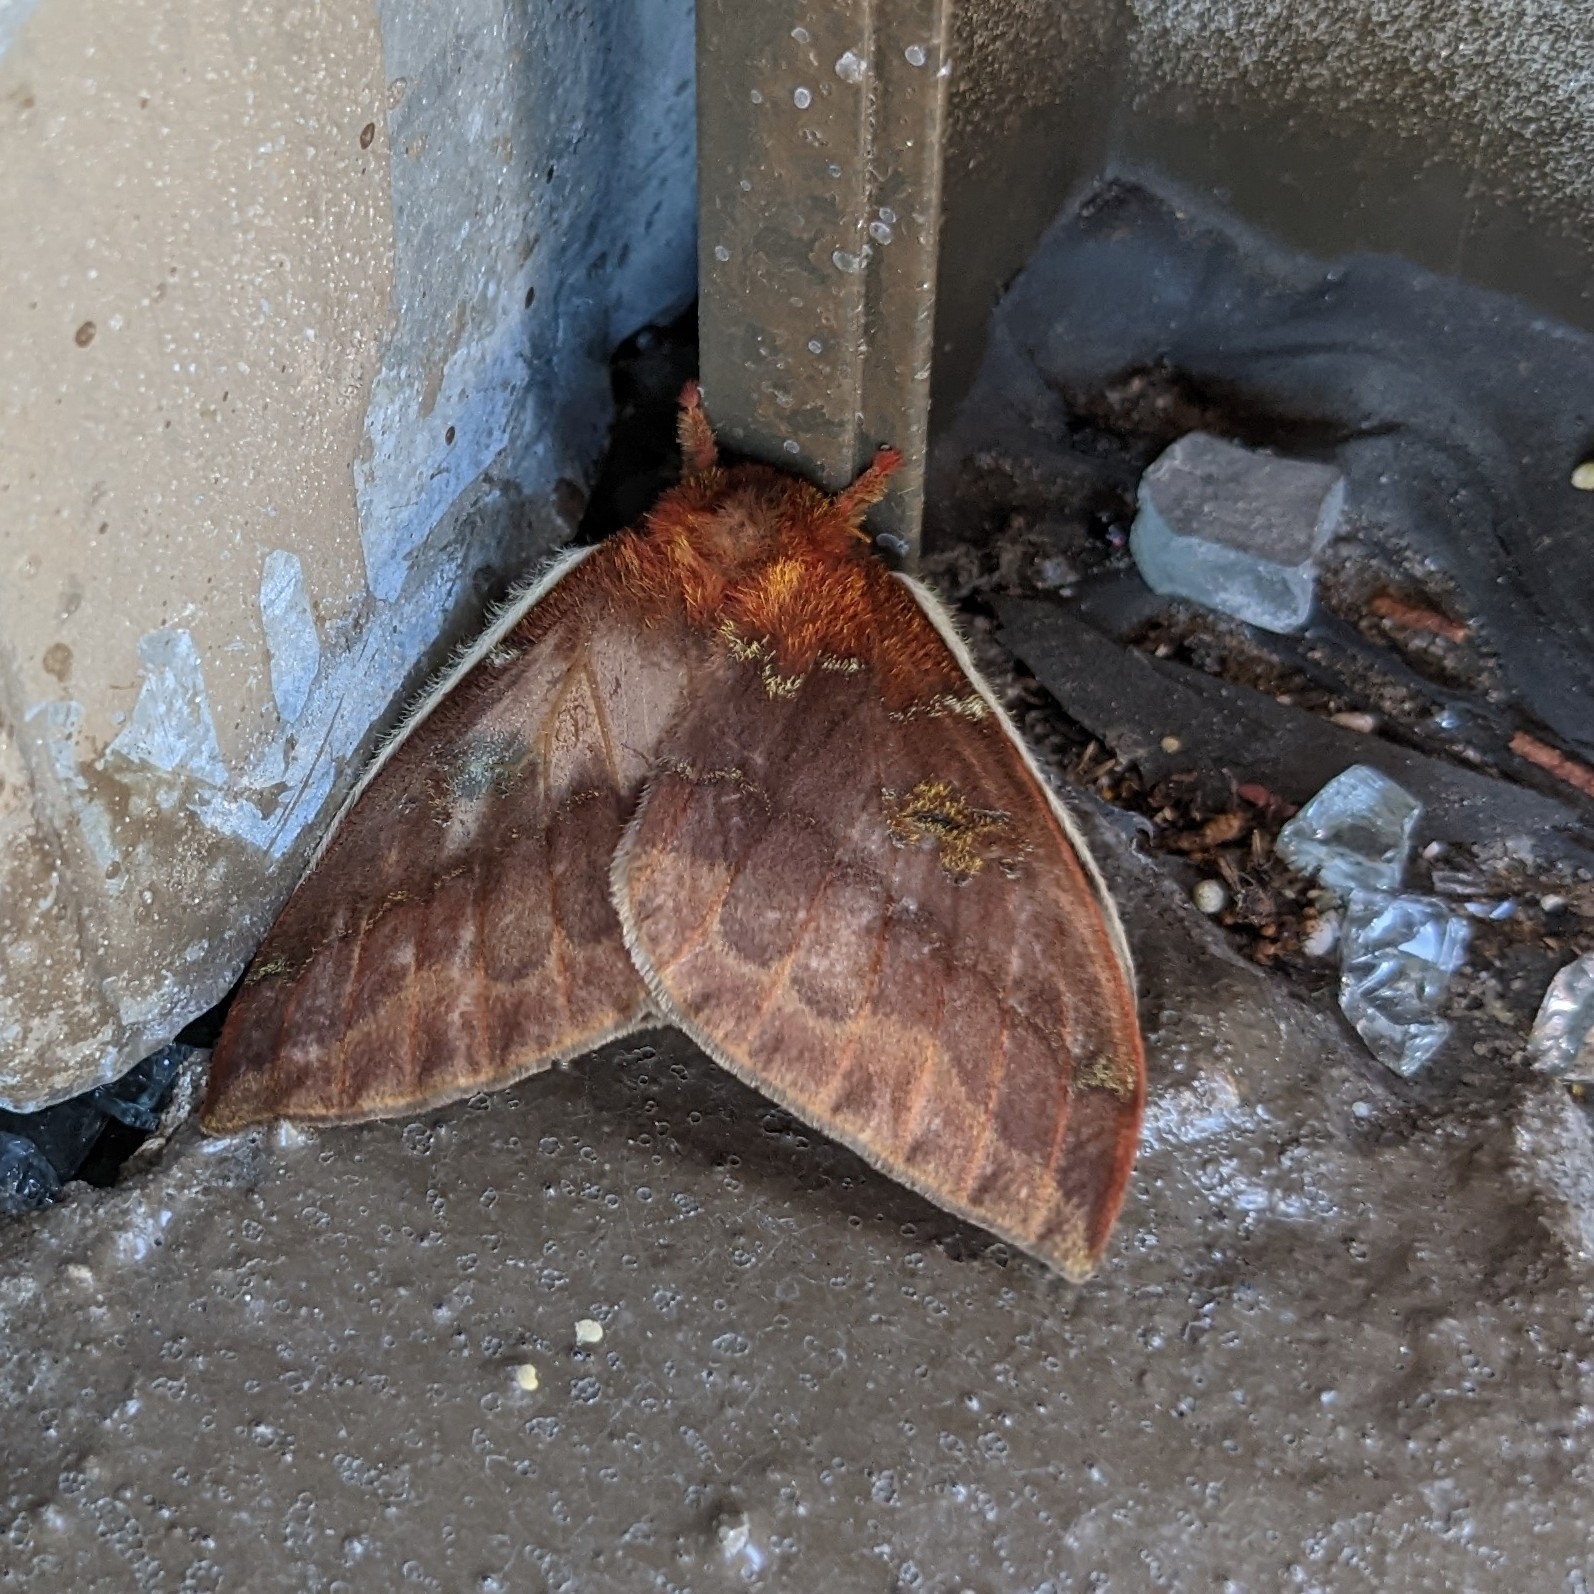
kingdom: Animalia
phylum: Arthropoda
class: Insecta
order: Lepidoptera
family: Saturniidae
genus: Automeris
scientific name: Automeris io
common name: Io moth
